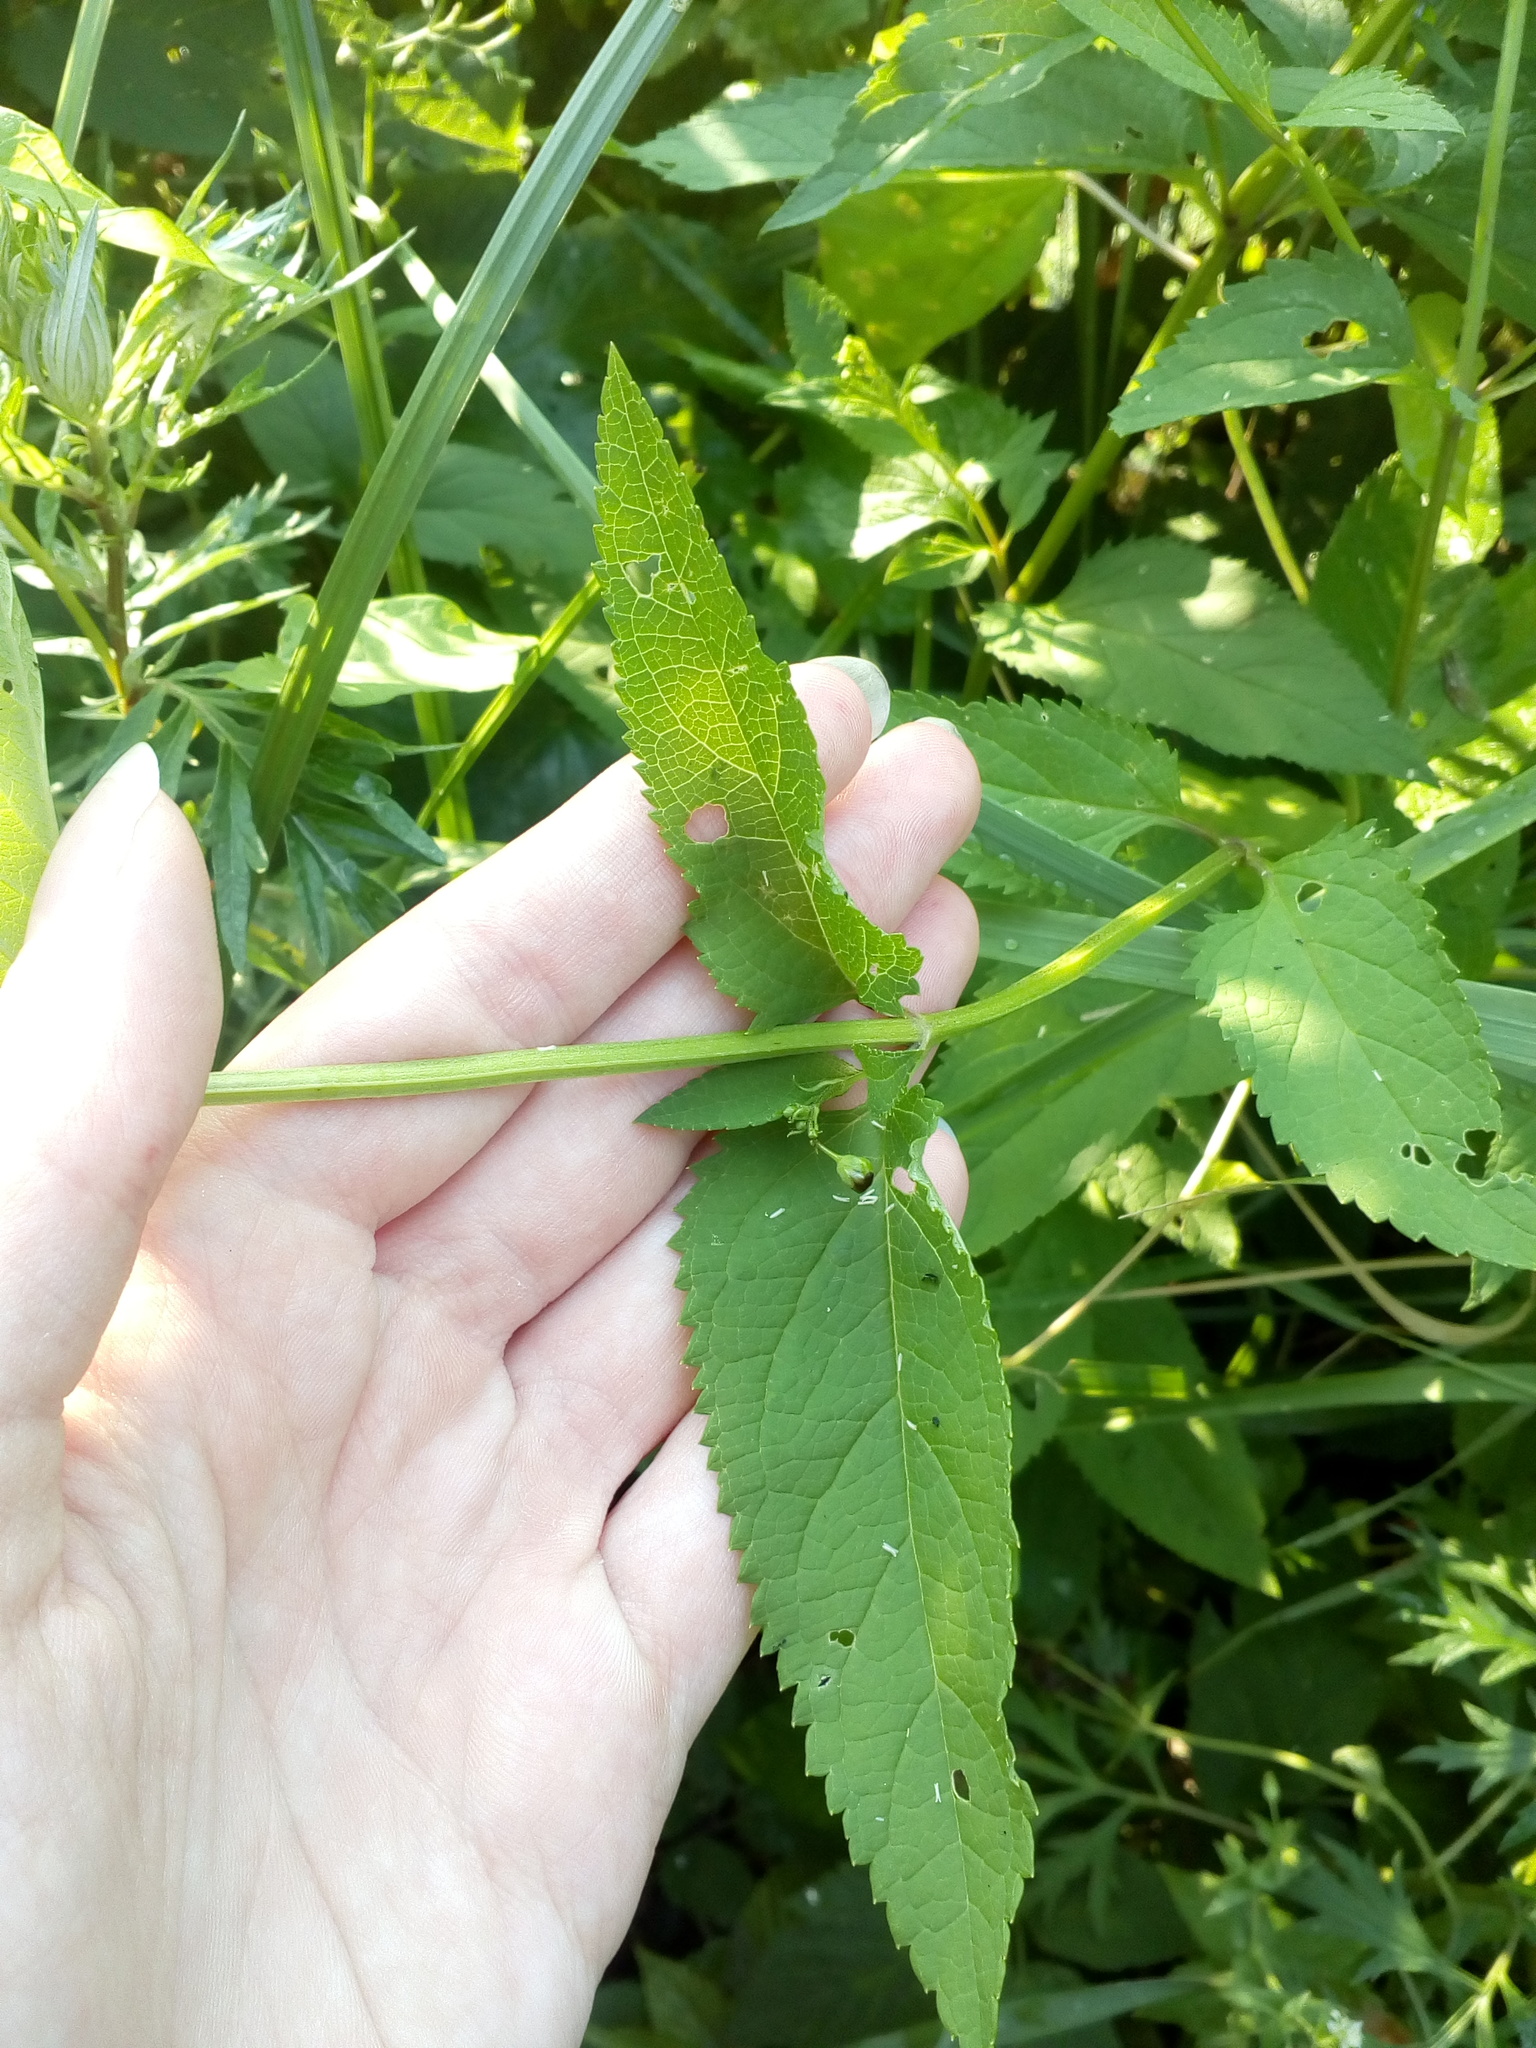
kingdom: Plantae
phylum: Tracheophyta
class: Magnoliopsida
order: Lamiales
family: Scrophulariaceae
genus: Scrophularia
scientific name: Scrophularia nodosa
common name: Common figwort
